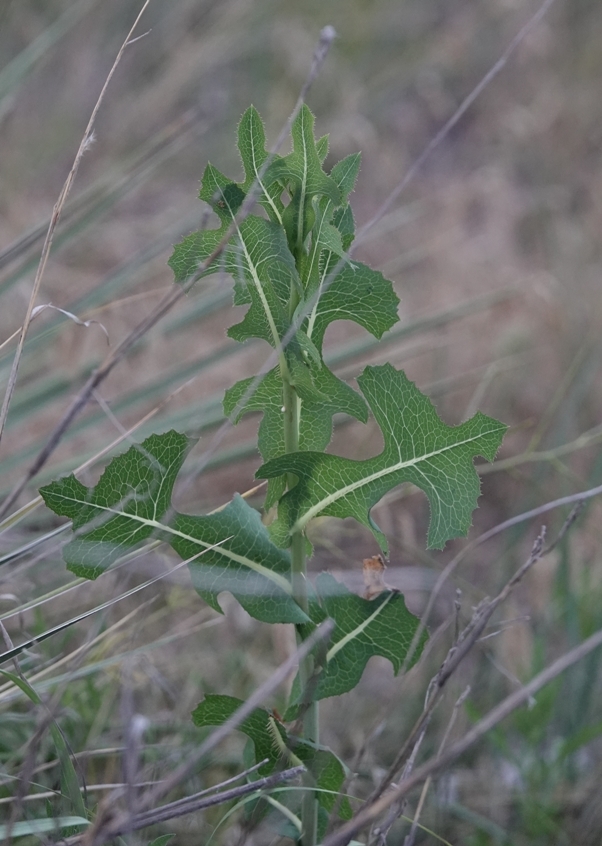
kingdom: Plantae
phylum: Tracheophyta
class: Magnoliopsida
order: Asterales
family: Asteraceae
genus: Lactuca
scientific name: Lactuca serriola
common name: Prickly lettuce
